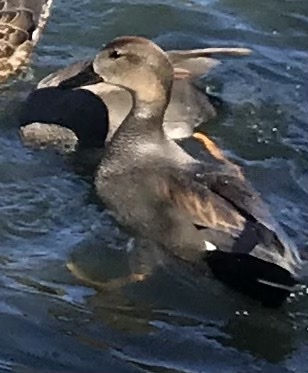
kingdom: Animalia
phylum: Chordata
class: Aves
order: Anseriformes
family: Anatidae
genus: Mareca
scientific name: Mareca strepera
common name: Gadwall
